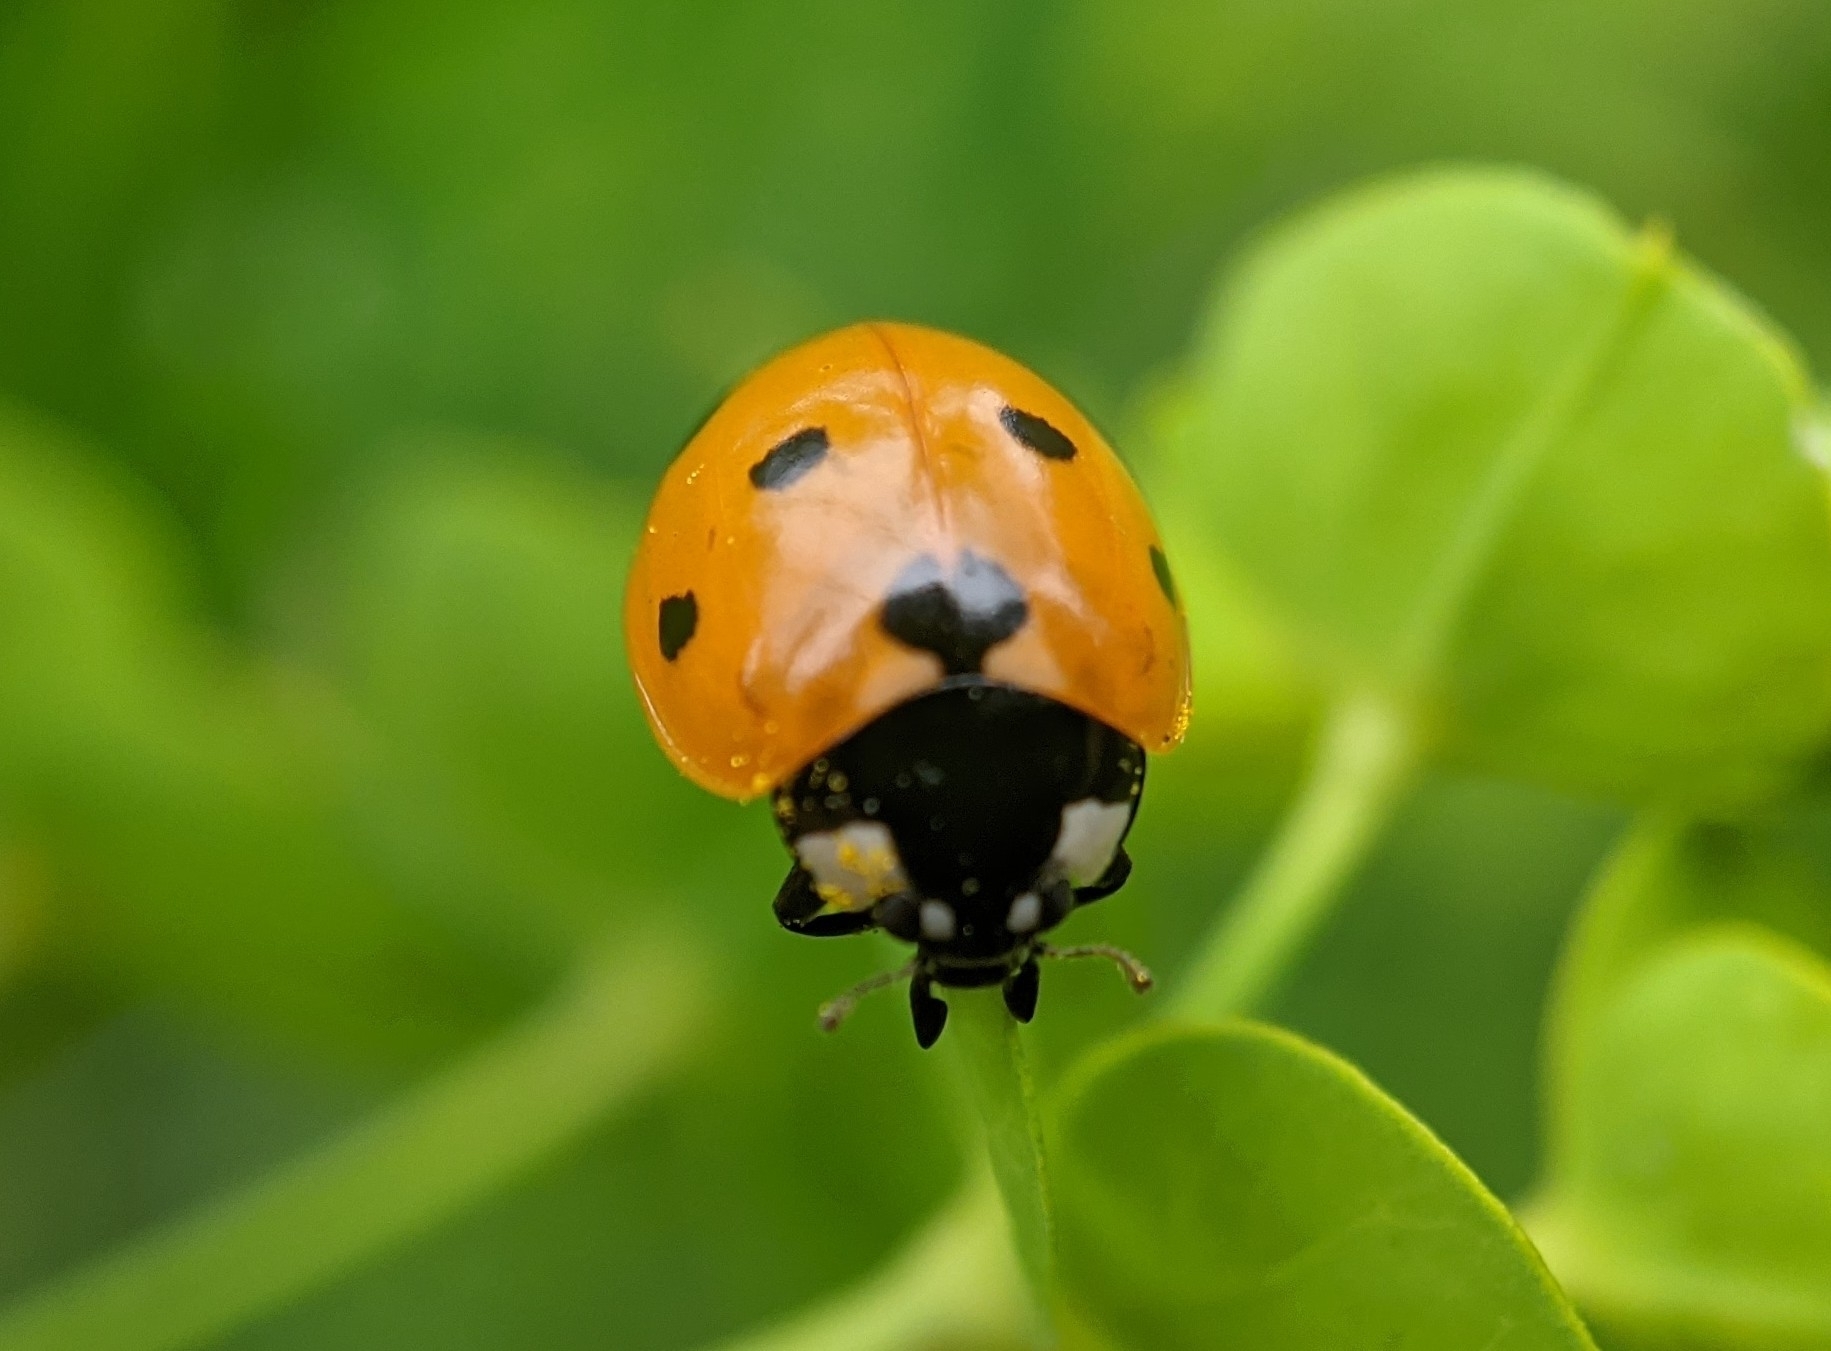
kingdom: Animalia
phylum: Arthropoda
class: Insecta
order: Coleoptera
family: Coccinellidae
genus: Coccinella
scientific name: Coccinella septempunctata
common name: Sevenspotted lady beetle
